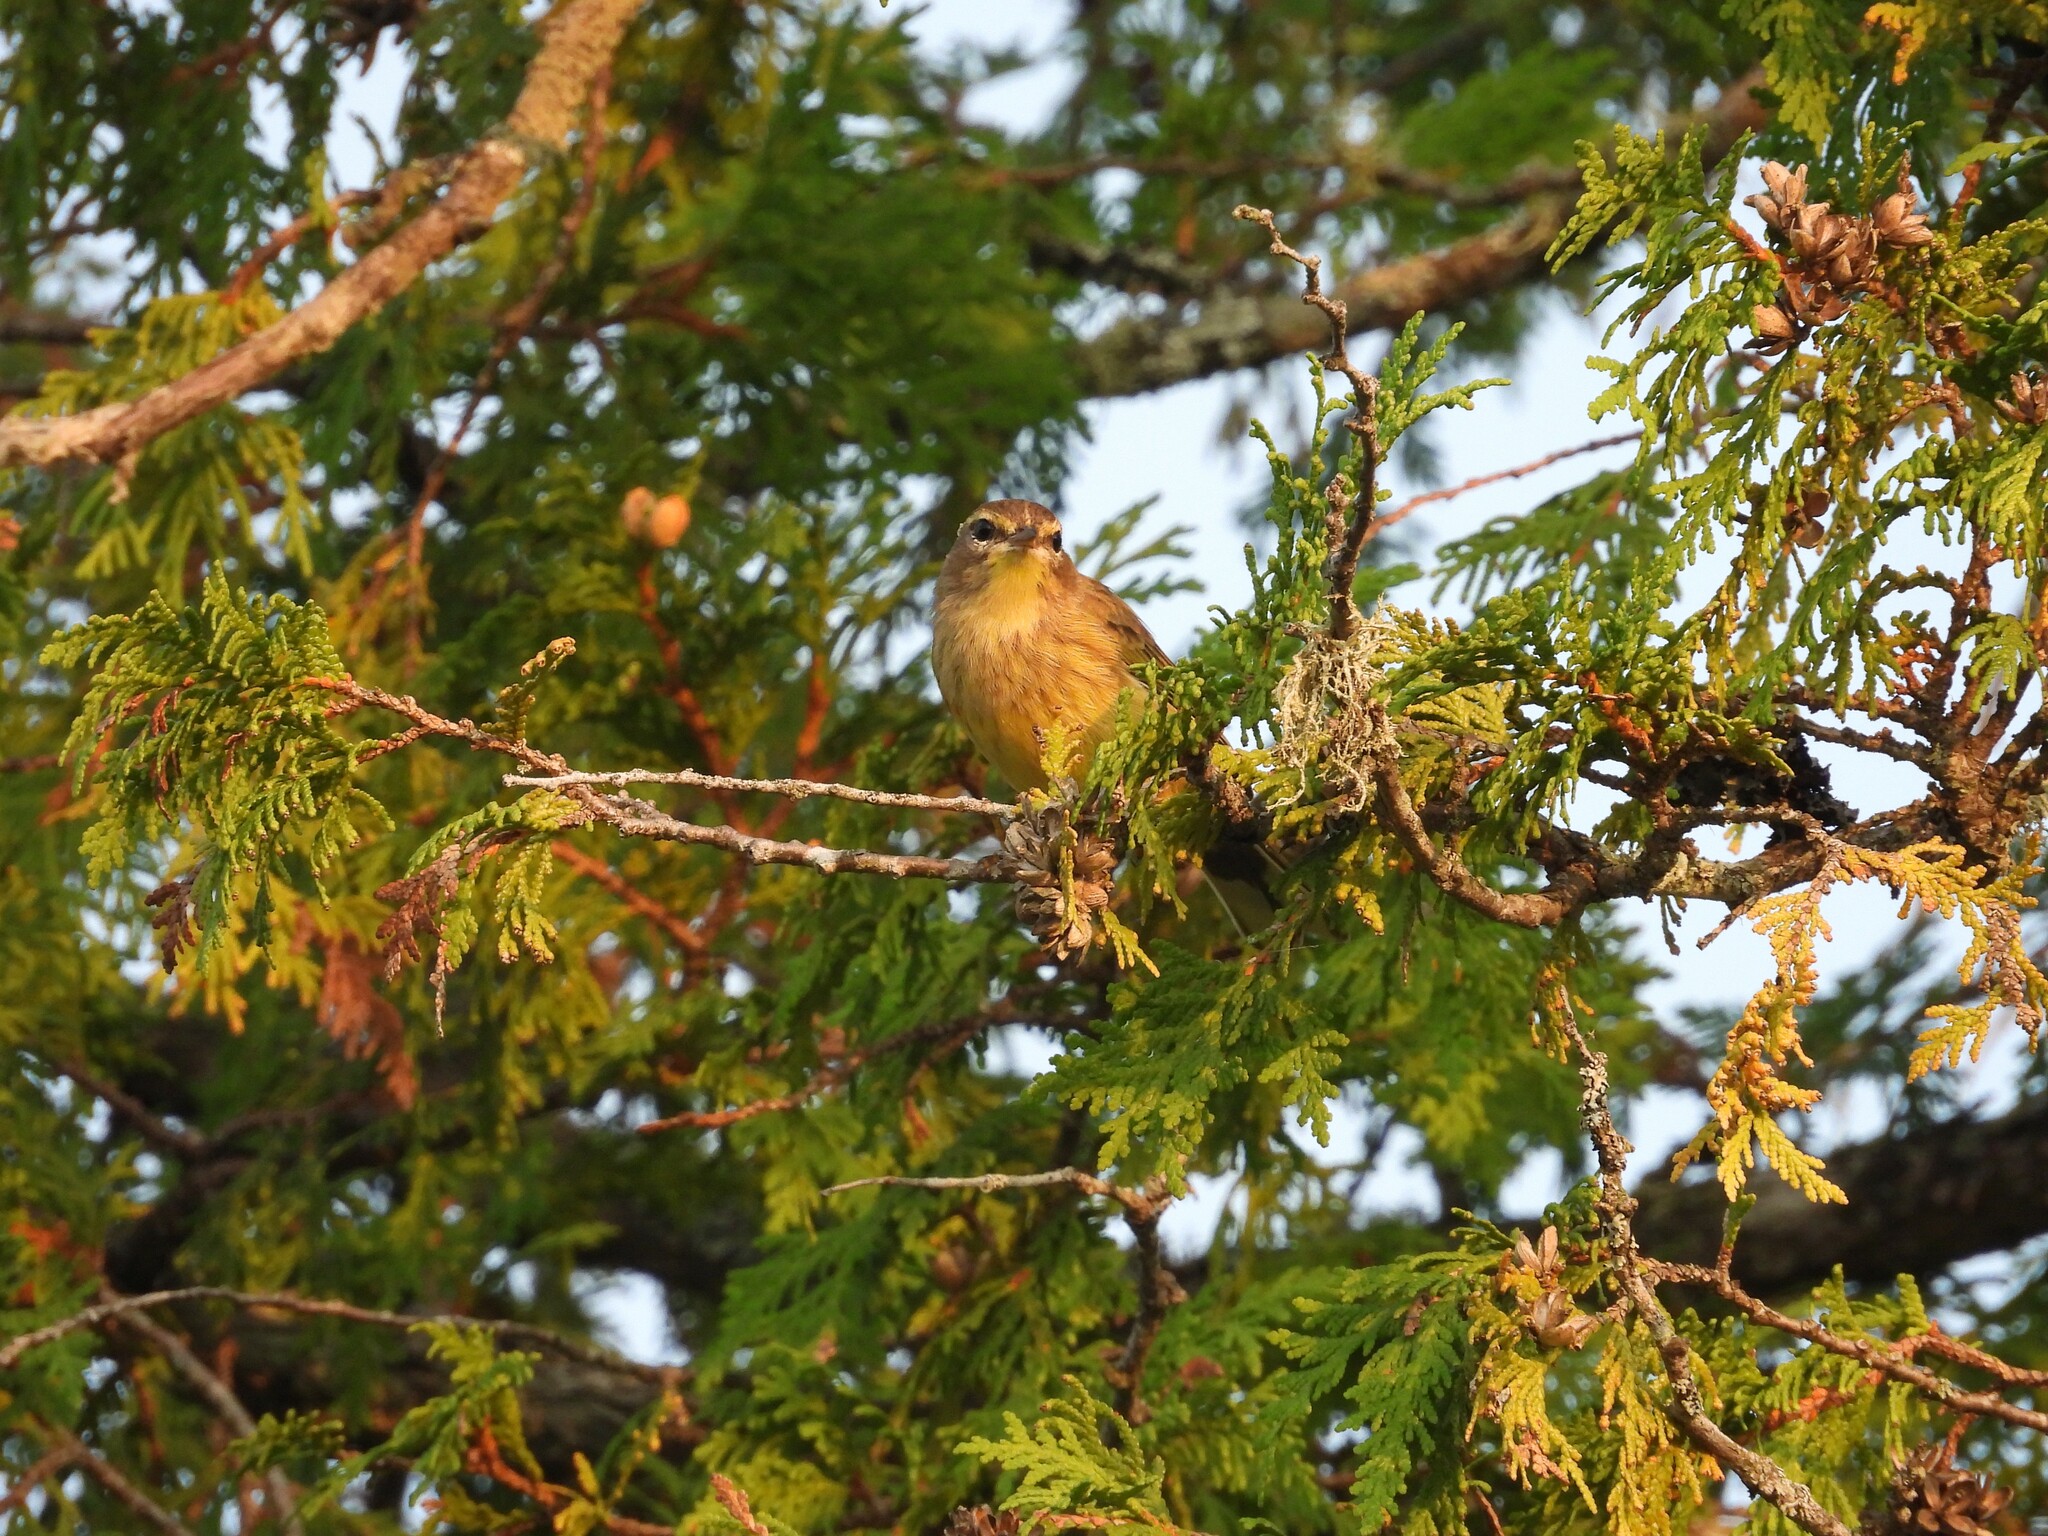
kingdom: Animalia
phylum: Chordata
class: Aves
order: Passeriformes
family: Parulidae
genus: Setophaga
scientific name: Setophaga palmarum
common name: Palm warbler
